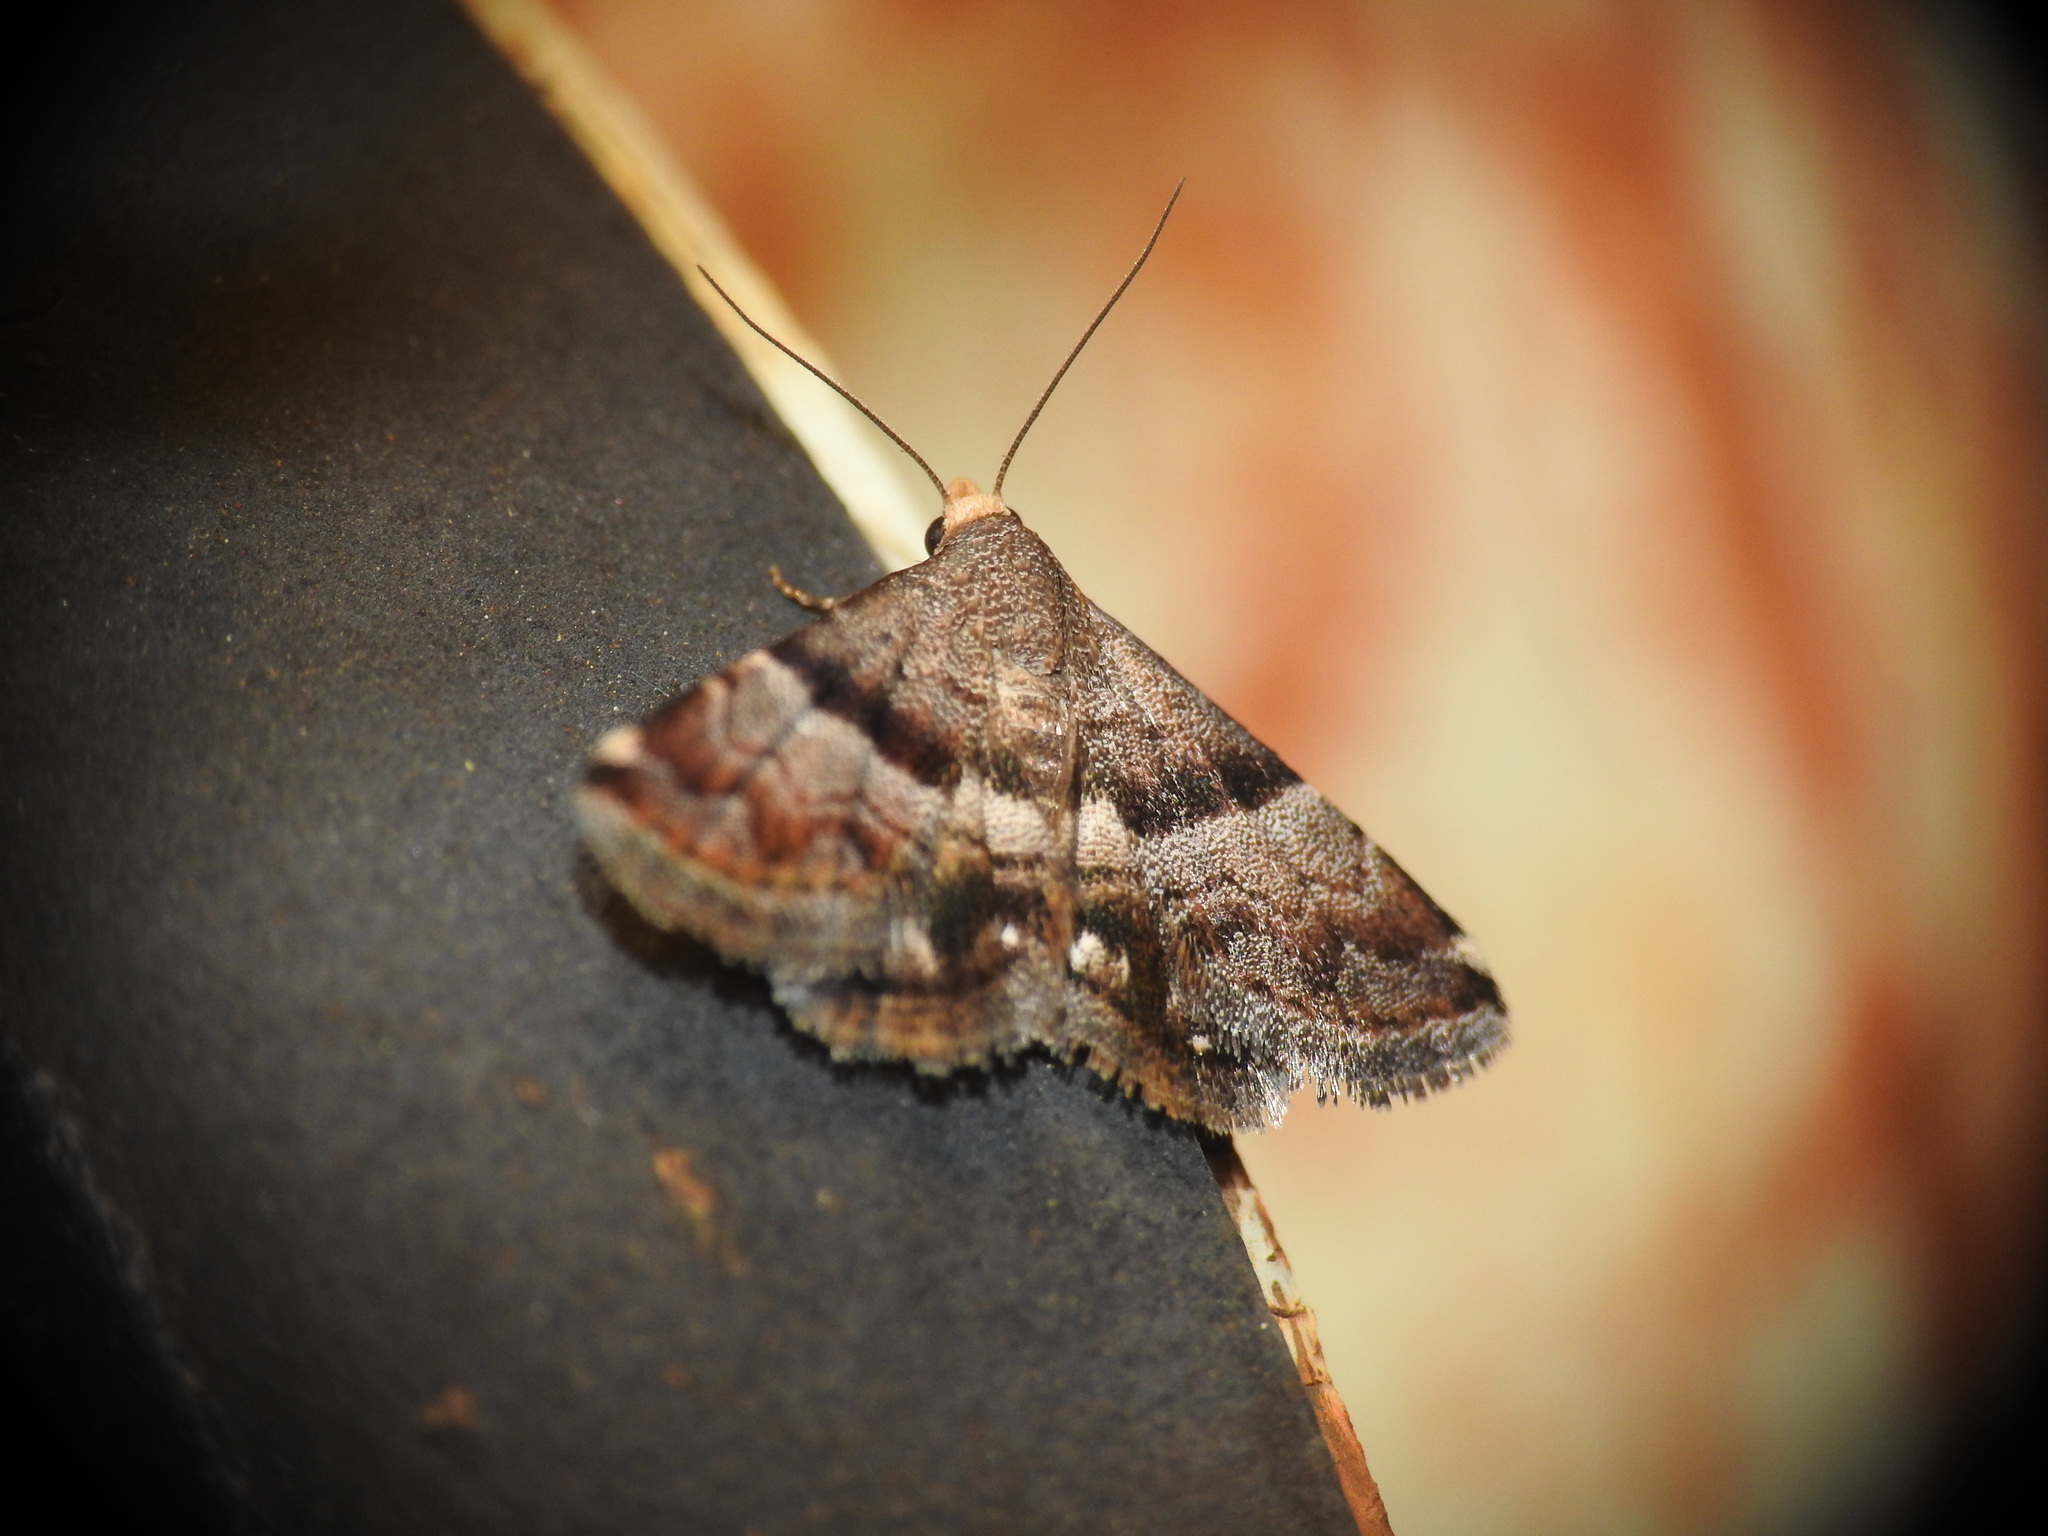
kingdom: Animalia
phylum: Arthropoda
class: Insecta
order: Lepidoptera
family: Noctuidae
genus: Odice
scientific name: Odice jucunda
